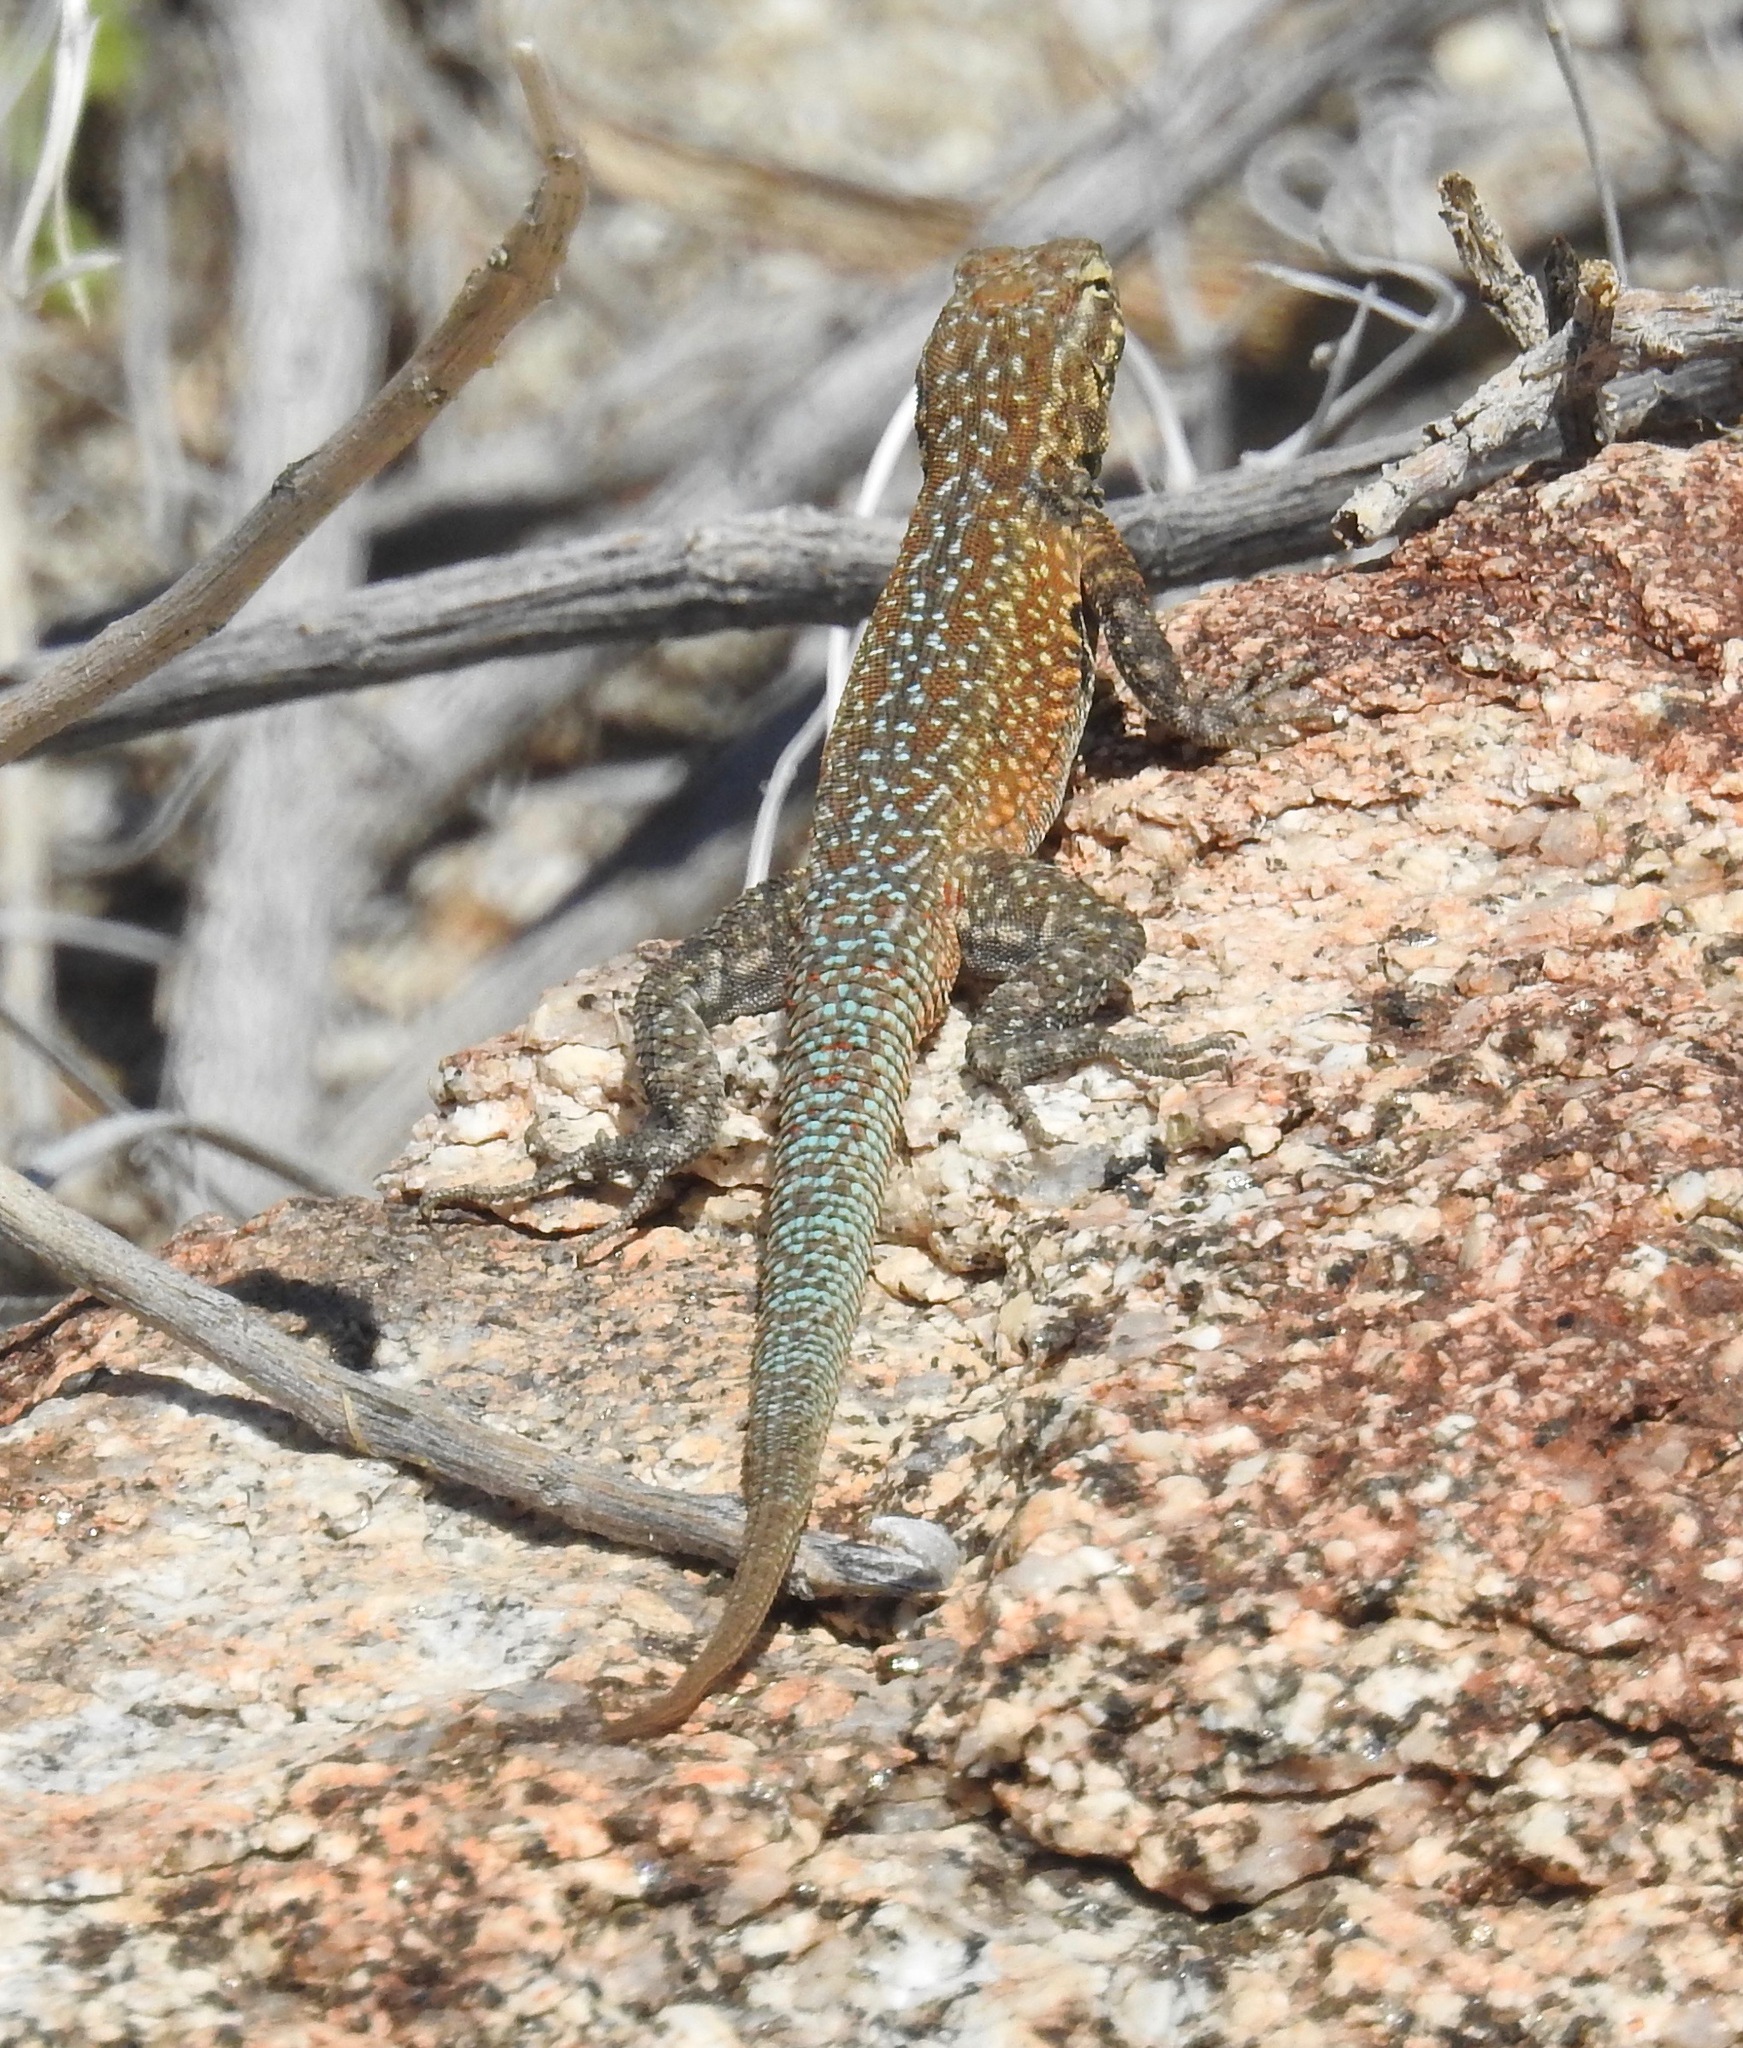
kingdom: Animalia
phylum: Chordata
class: Squamata
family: Phrynosomatidae
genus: Uta
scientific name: Uta stansburiana
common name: Side-blotched lizard
